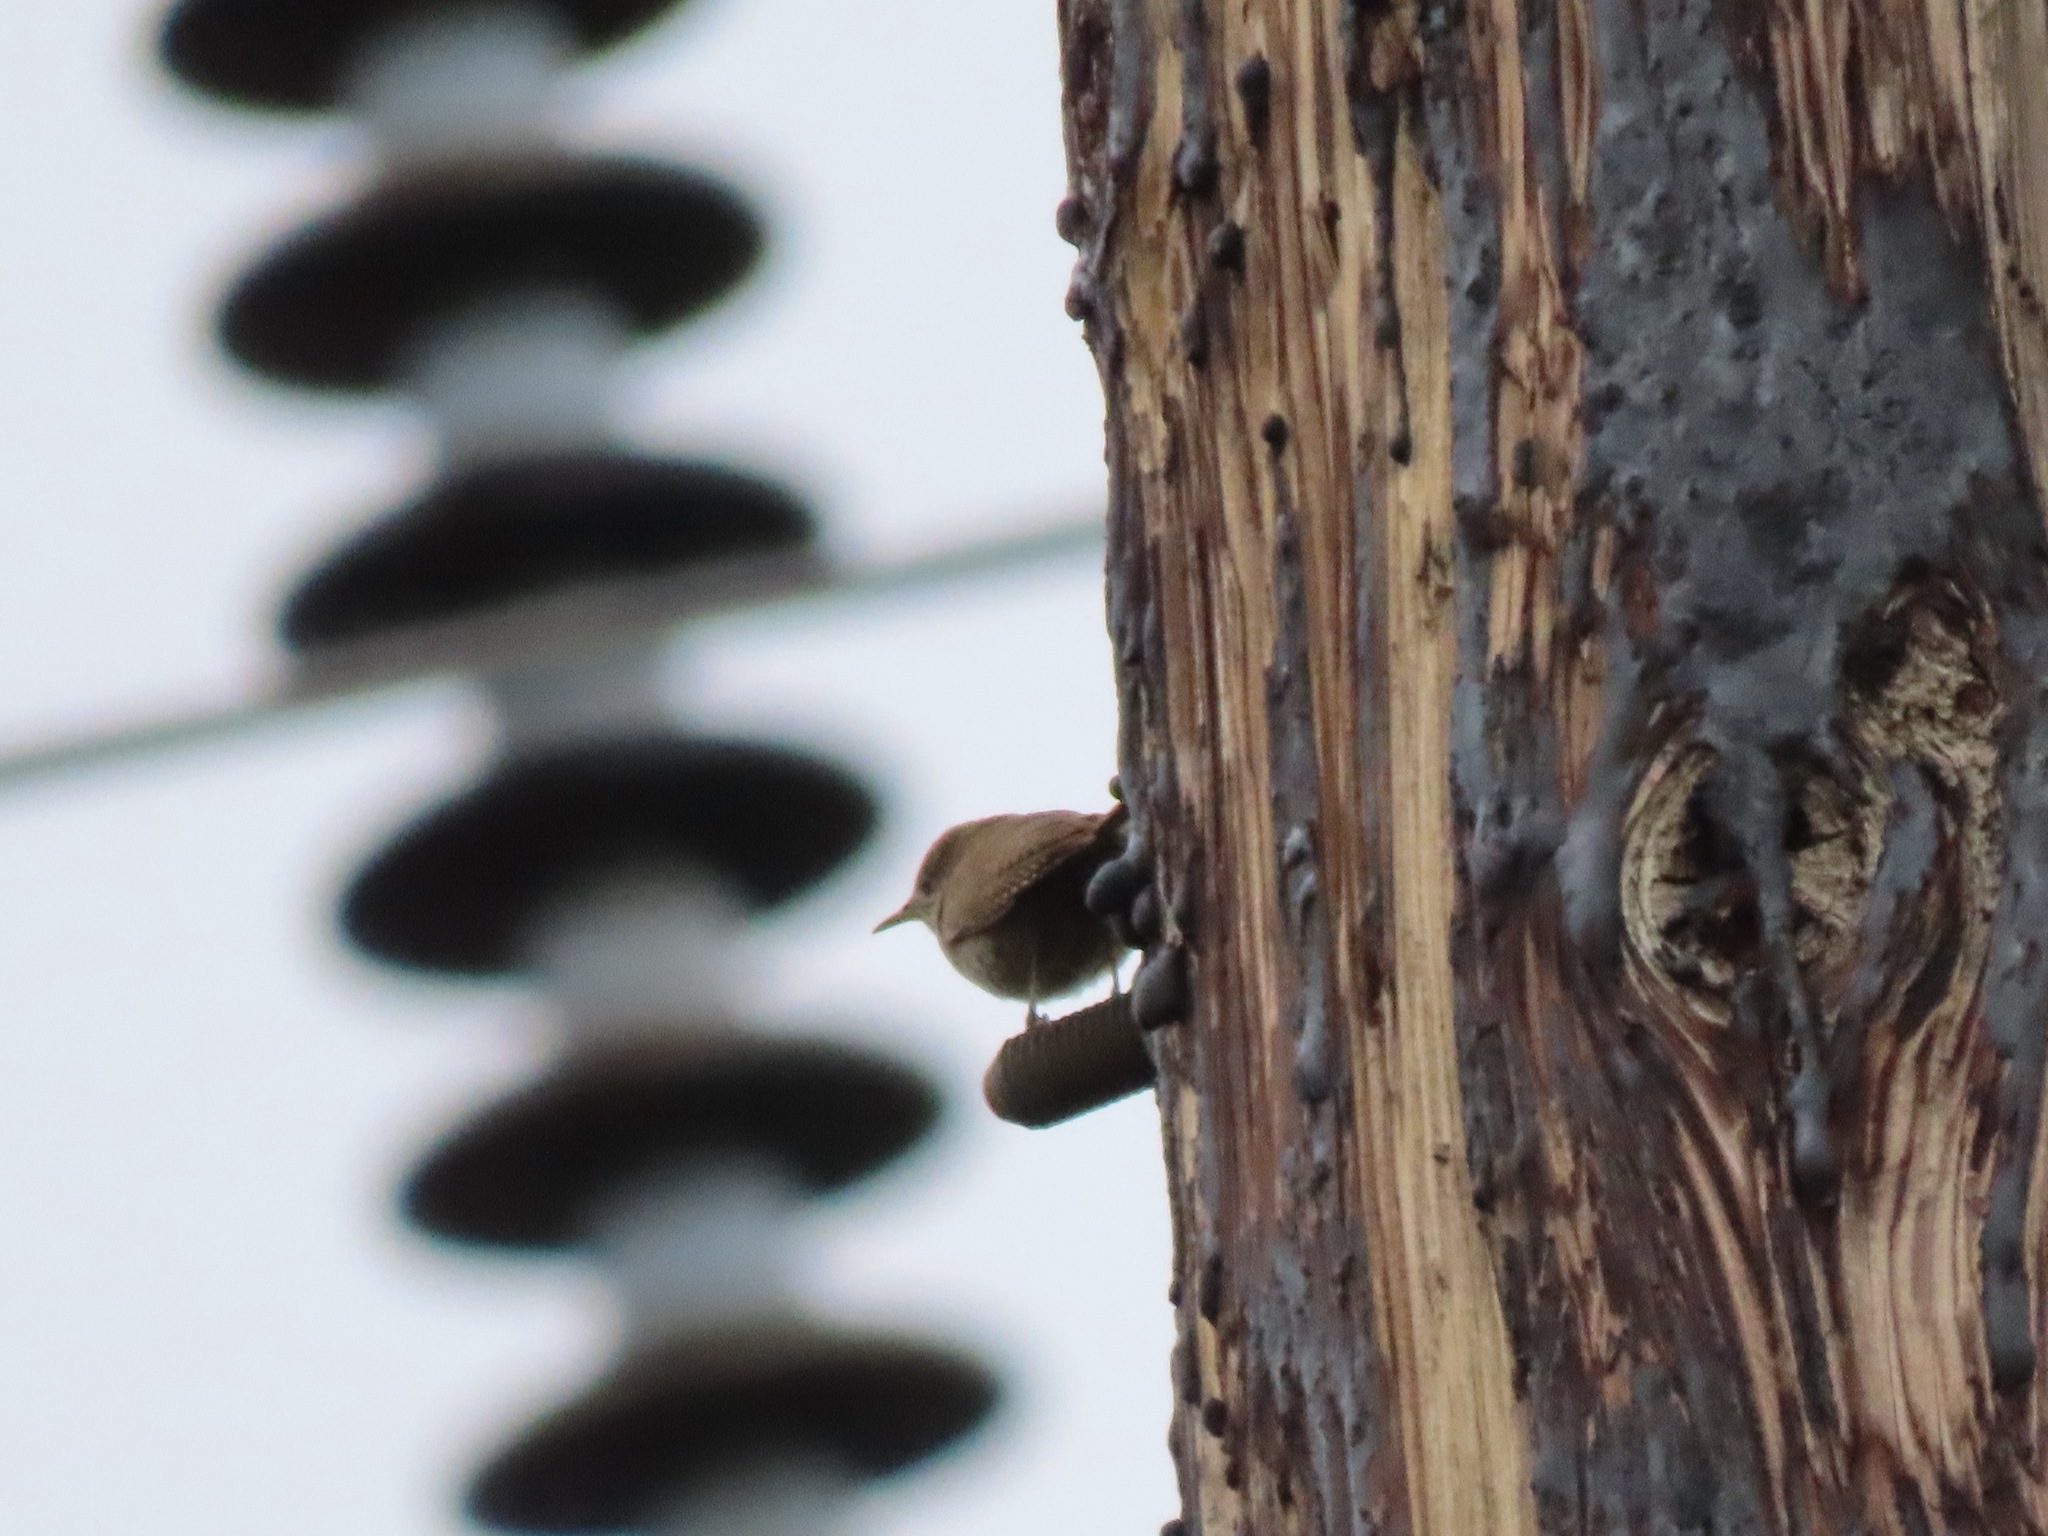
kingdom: Animalia
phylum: Chordata
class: Aves
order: Passeriformes
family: Troglodytidae
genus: Troglodytes
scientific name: Troglodytes aedon
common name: House wren
